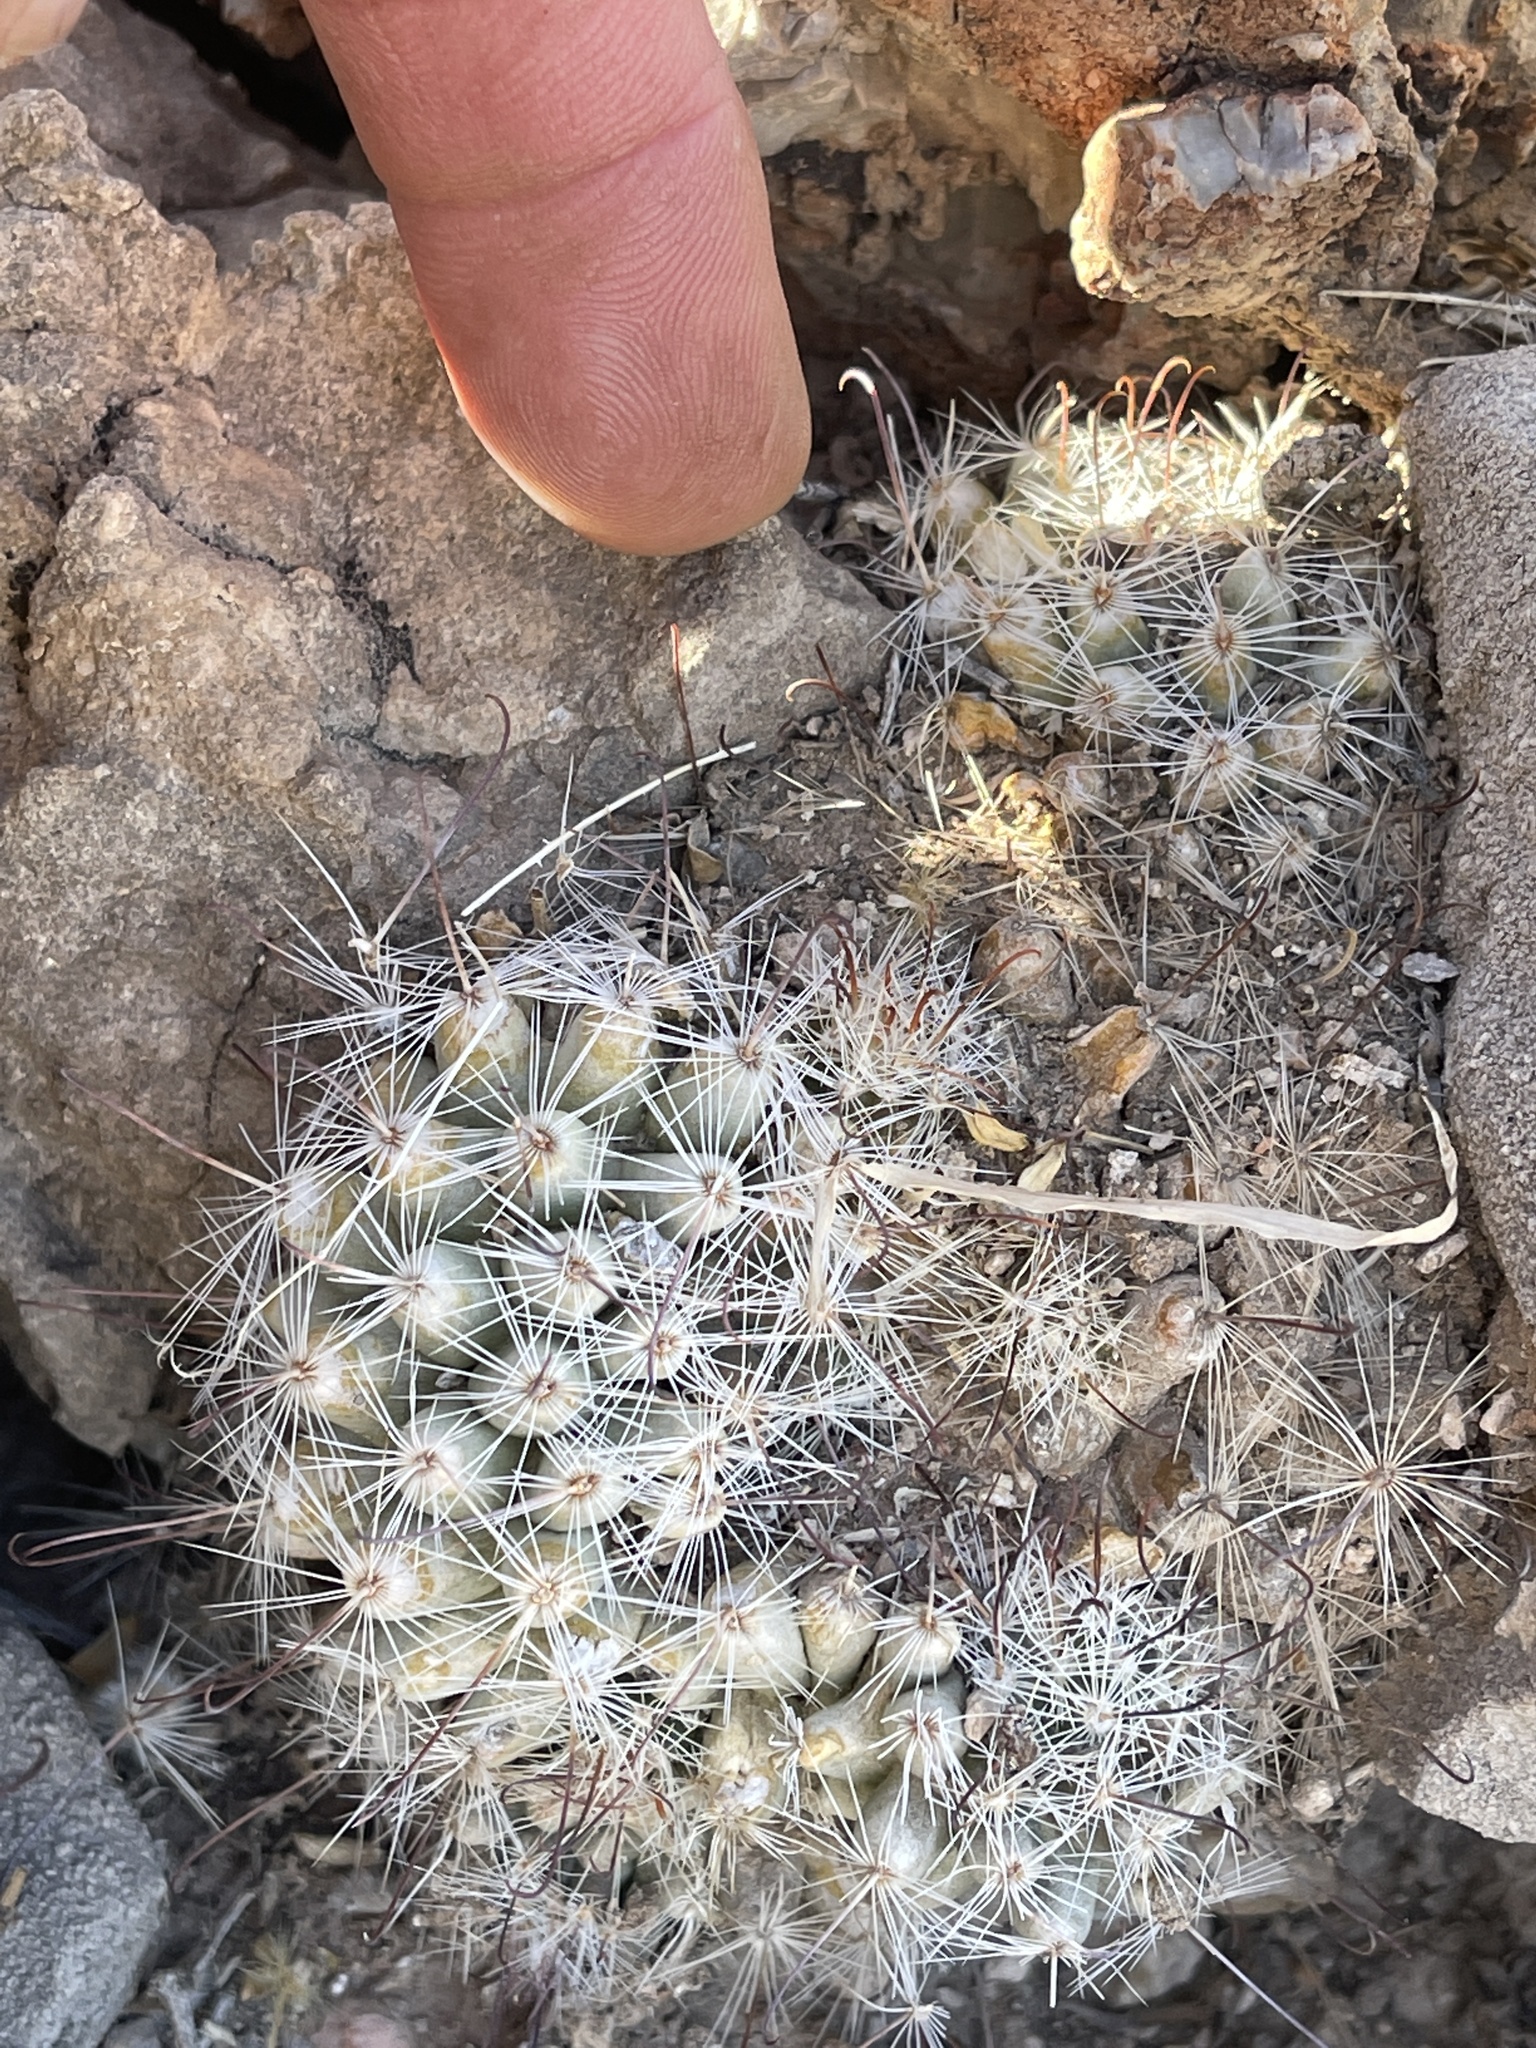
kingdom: Plantae
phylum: Tracheophyta
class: Magnoliopsida
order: Caryophyllales
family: Cactaceae
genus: Cochemiea
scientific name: Cochemiea grahamii
